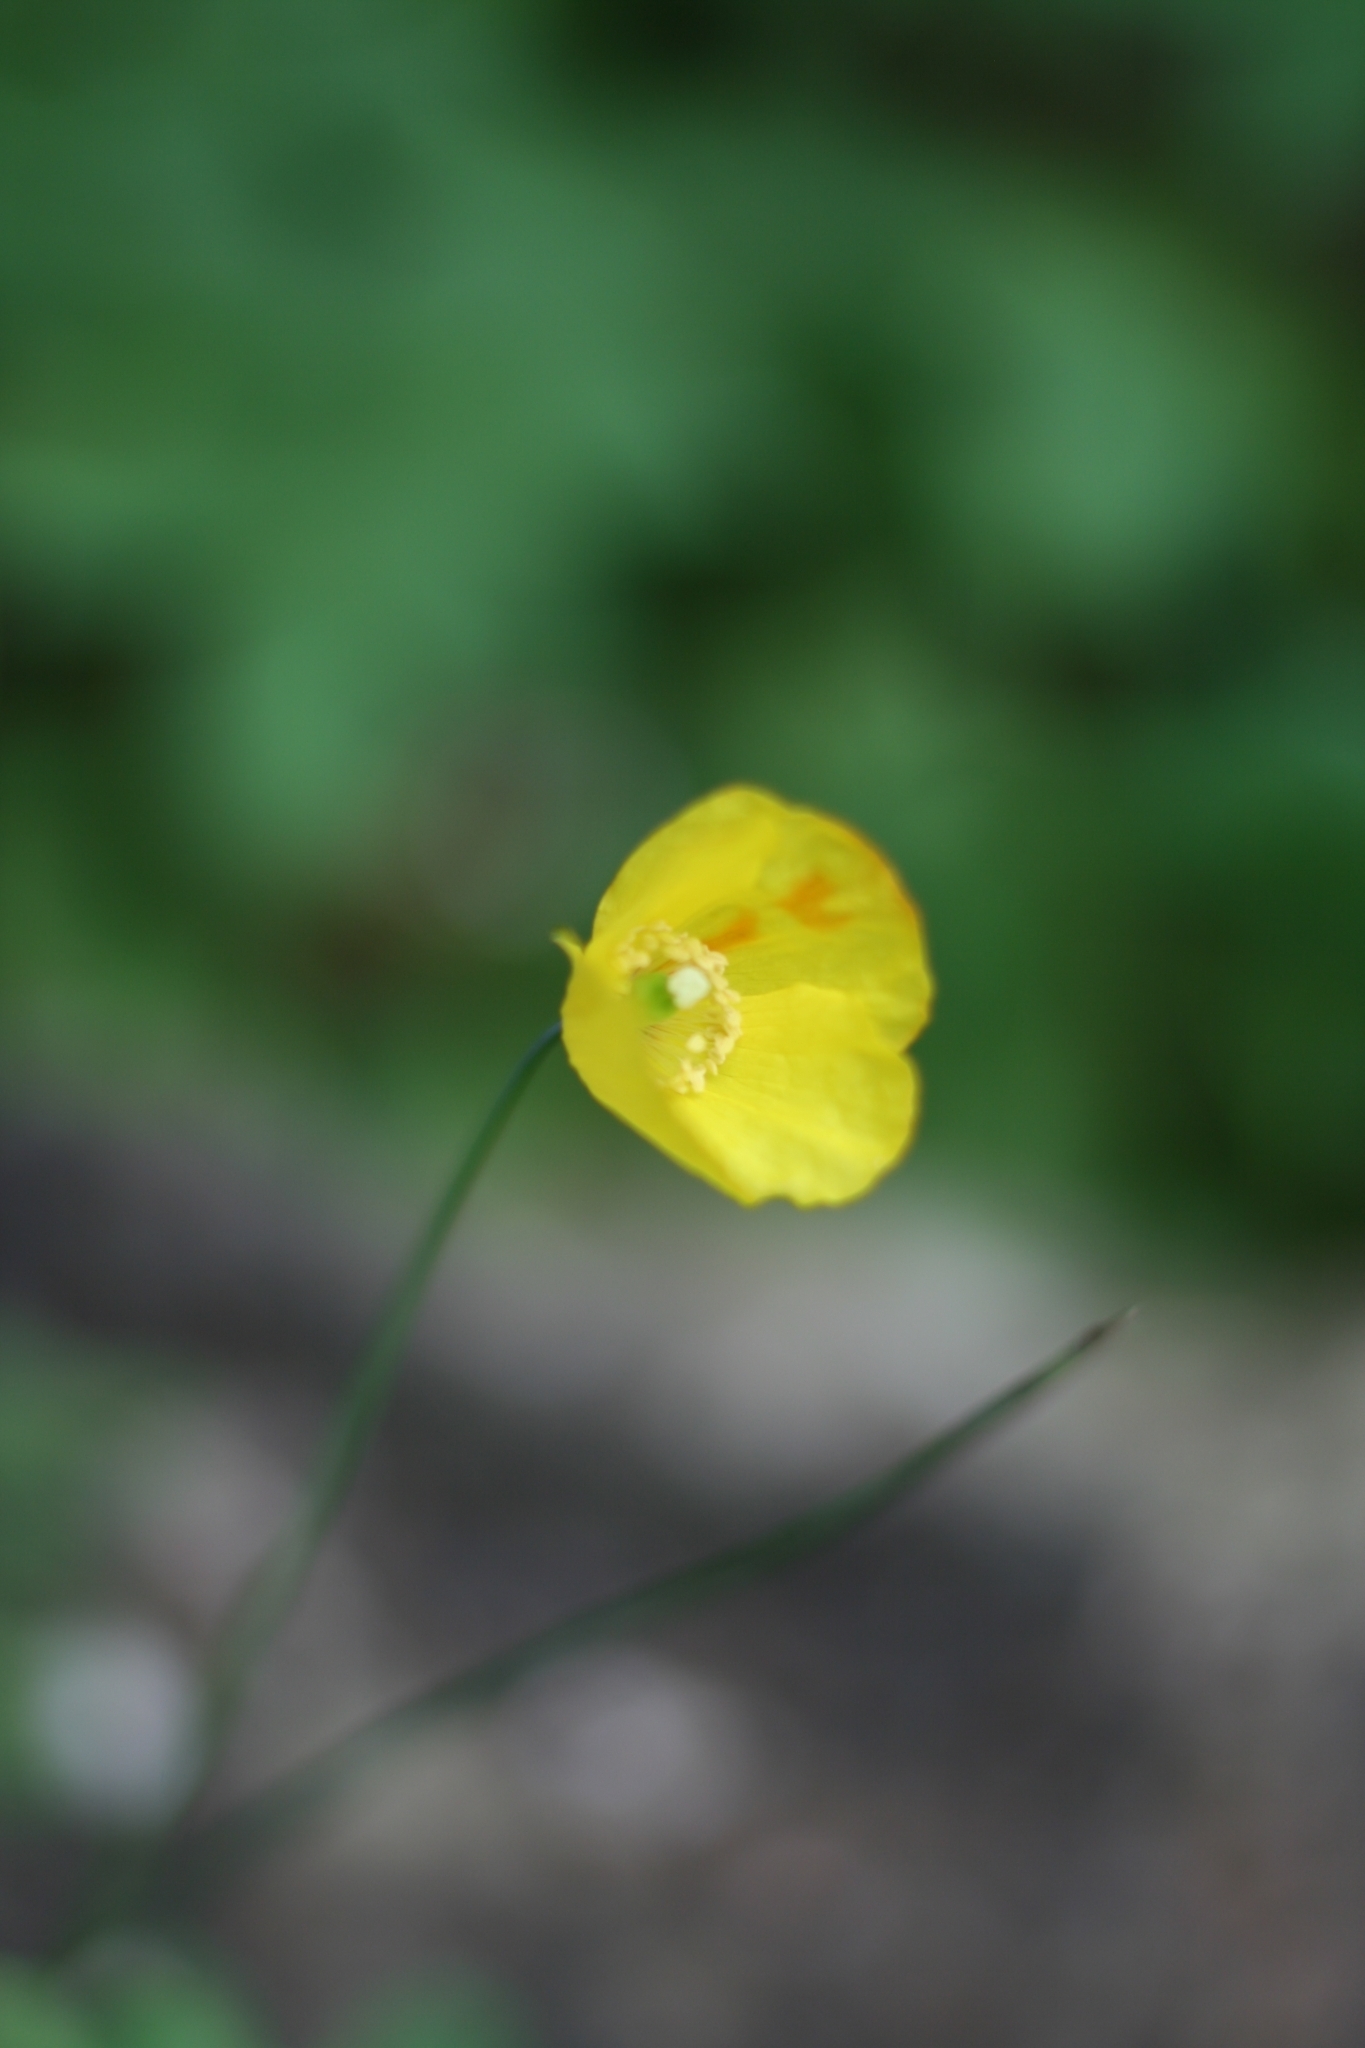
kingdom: Plantae
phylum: Tracheophyta
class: Magnoliopsida
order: Ranunculales
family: Papaveraceae
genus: Papaver
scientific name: Papaver cambricum
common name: Poppy
